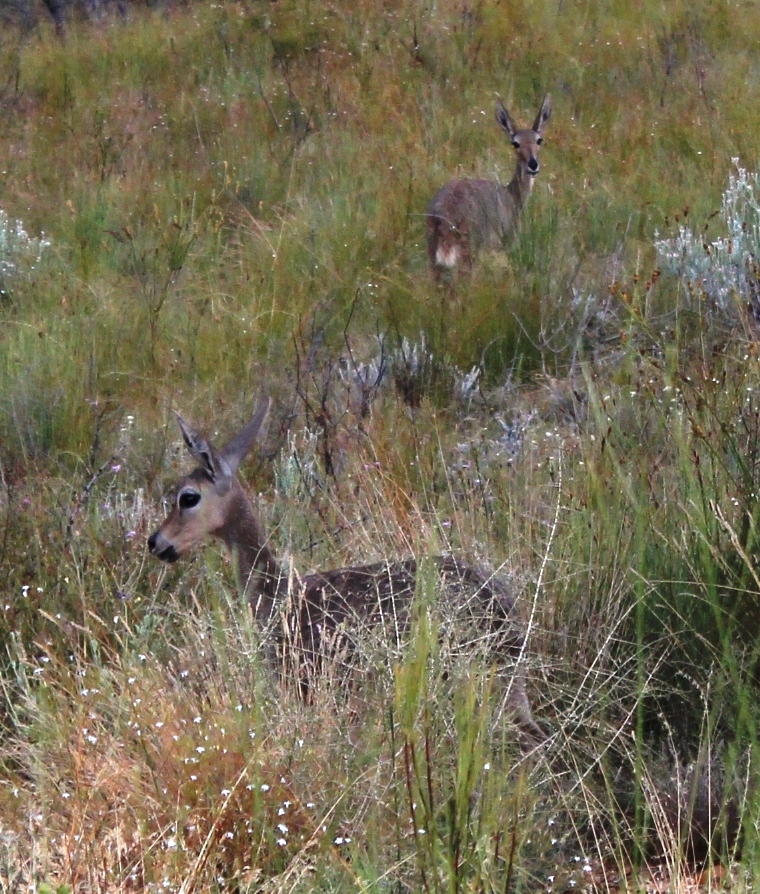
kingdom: Animalia
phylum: Chordata
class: Mammalia
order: Artiodactyla
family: Bovidae
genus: Pelea
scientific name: Pelea capreolus
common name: Common rhebok
